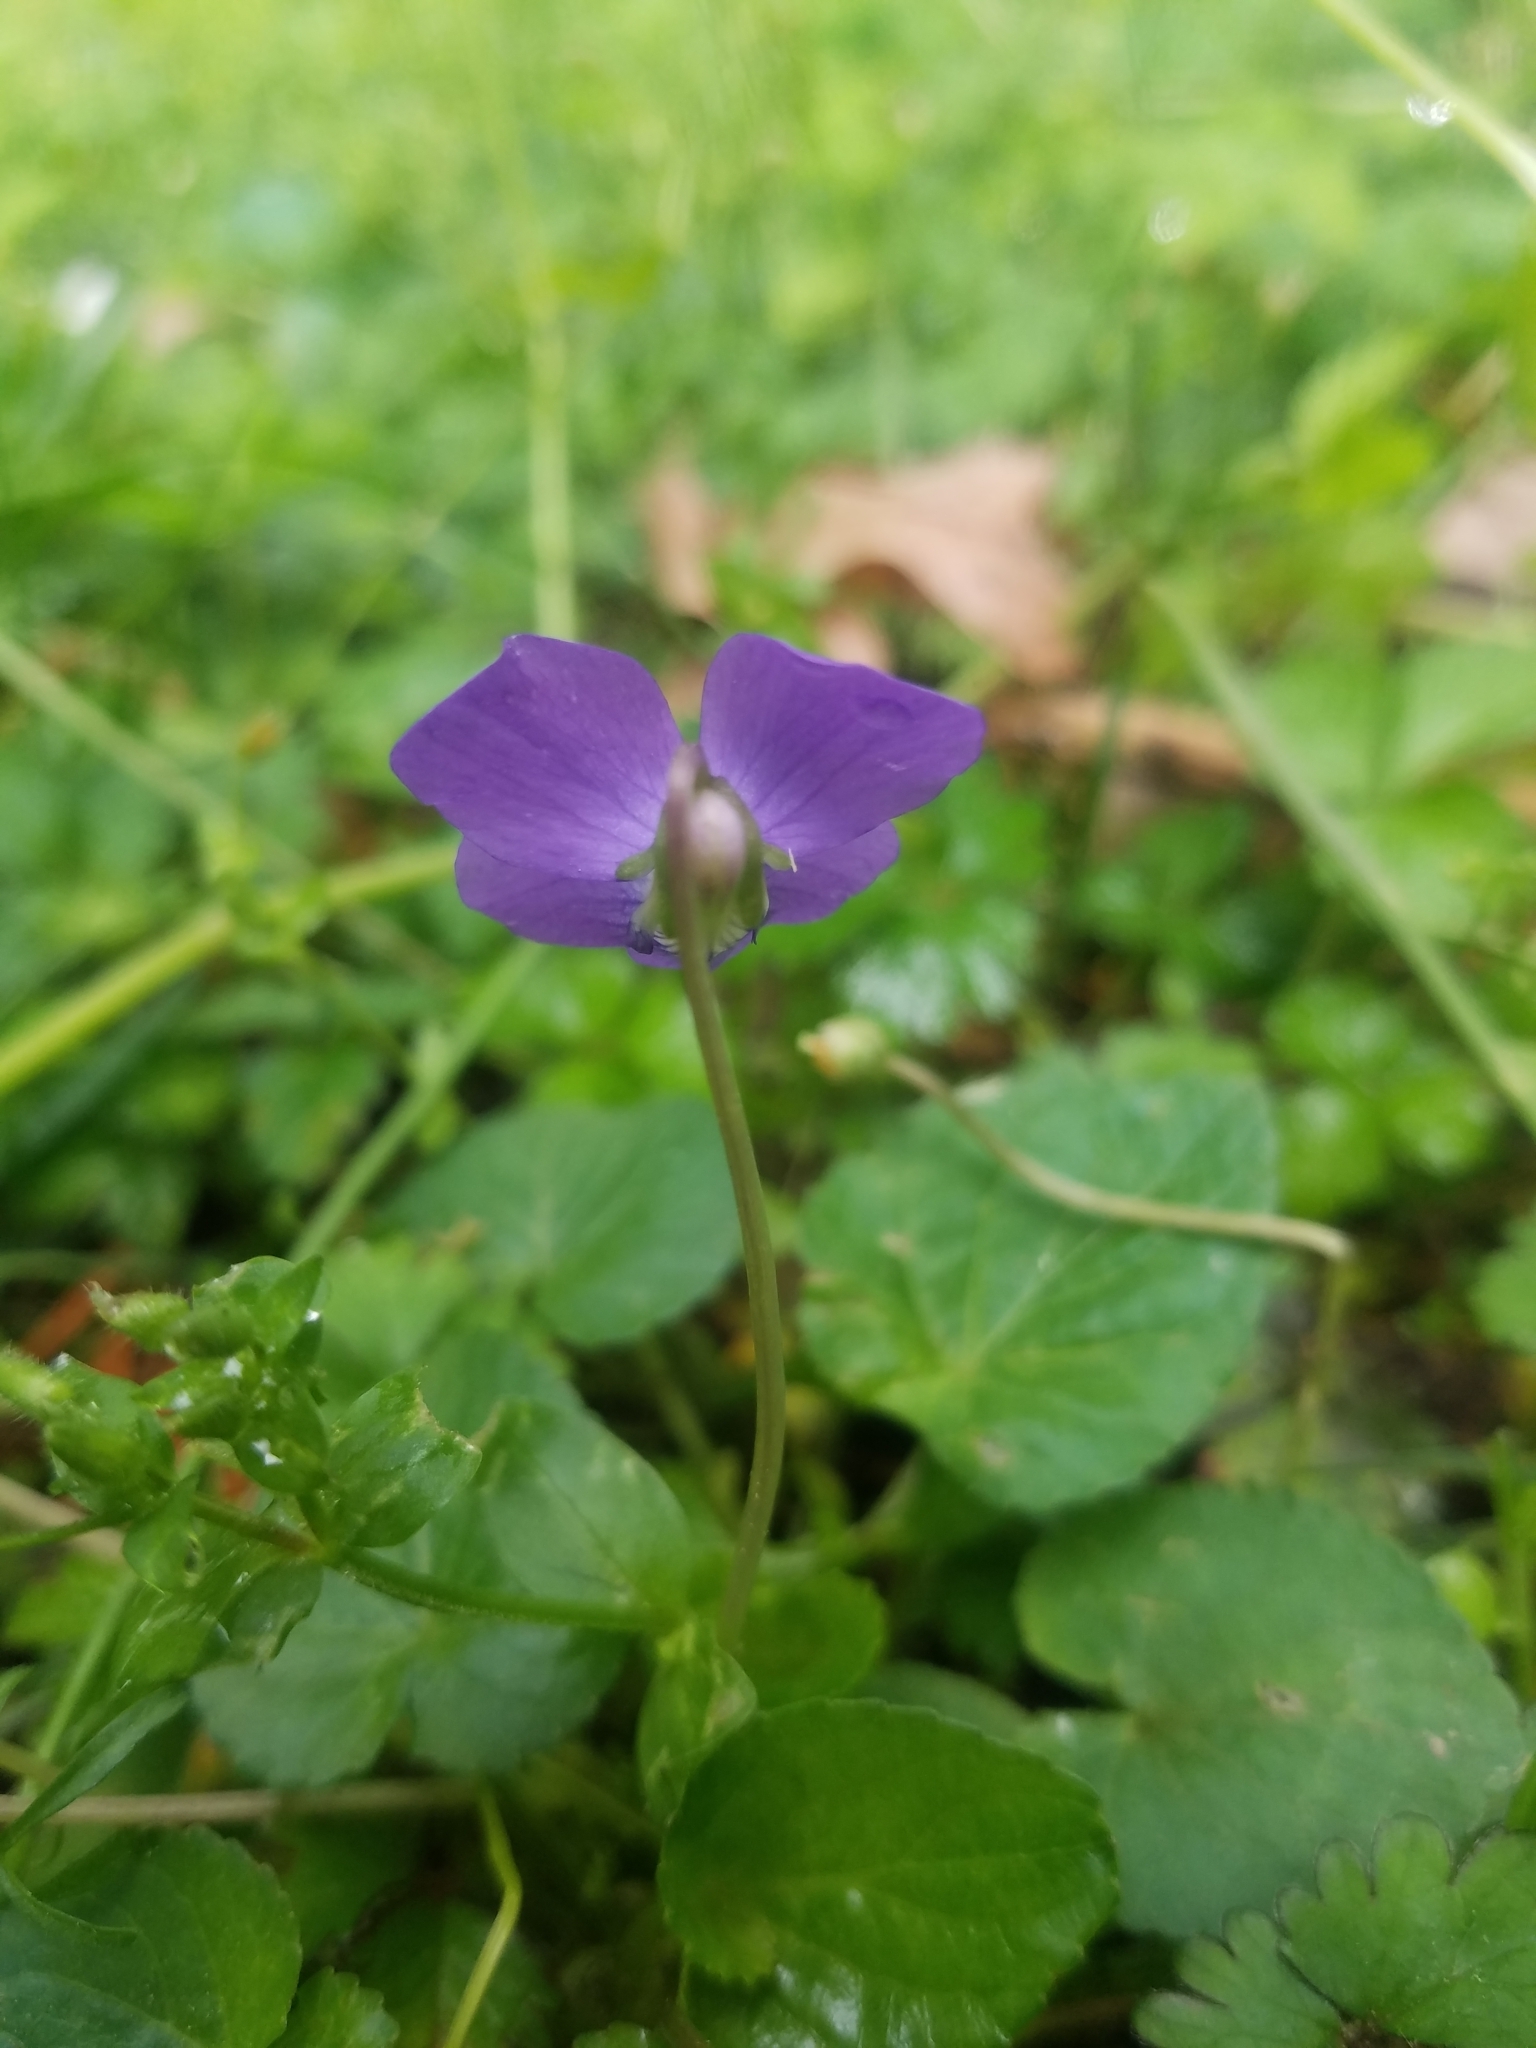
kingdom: Plantae
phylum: Tracheophyta
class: Magnoliopsida
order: Malpighiales
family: Violaceae
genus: Viola
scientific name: Viola sororia
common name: Dooryard violet
